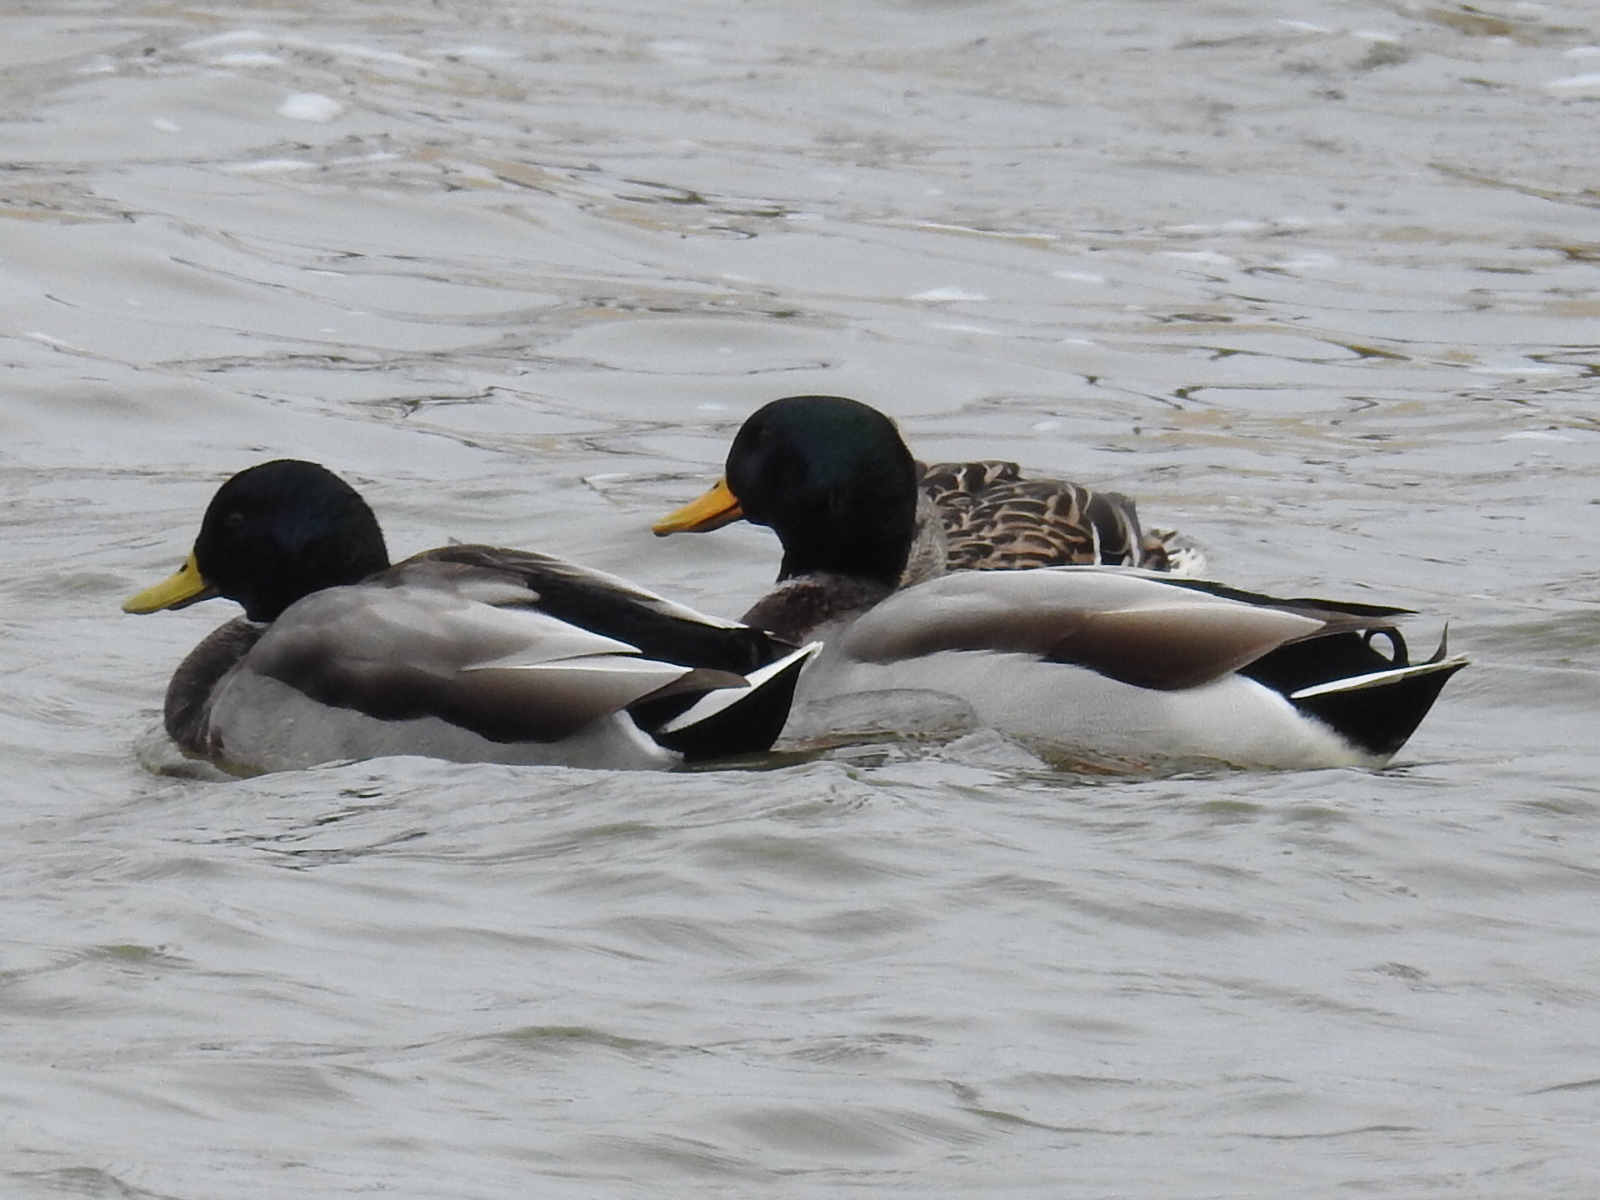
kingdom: Animalia
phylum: Chordata
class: Aves
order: Anseriformes
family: Anatidae
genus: Anas
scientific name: Anas platyrhynchos
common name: Mallard
